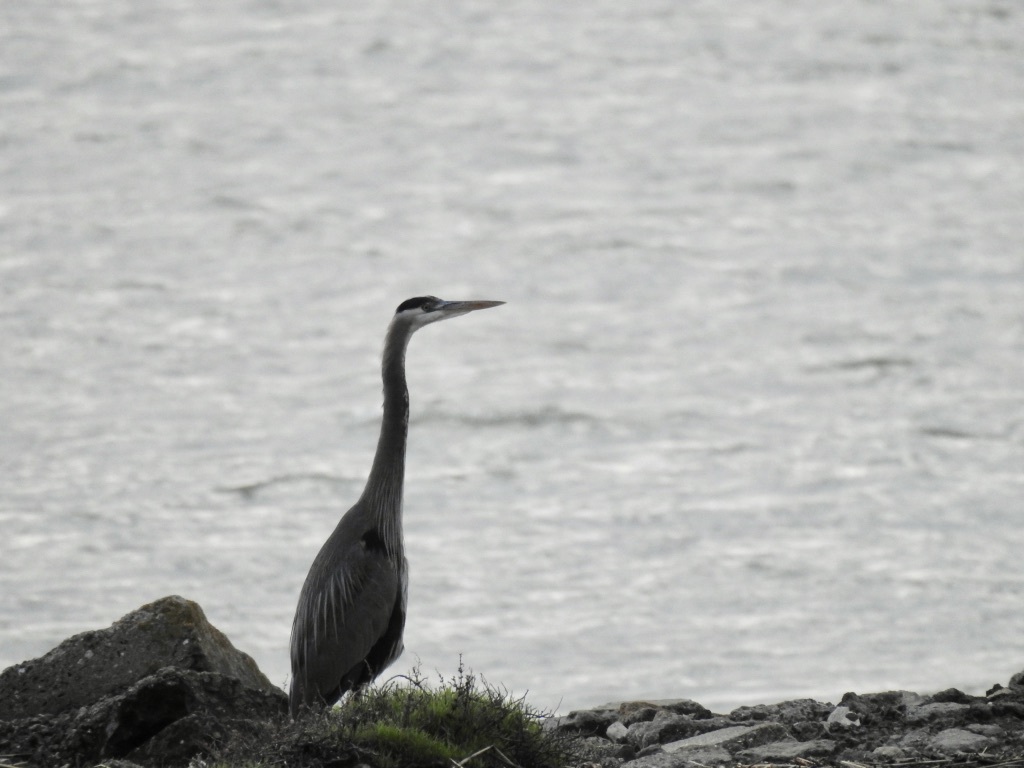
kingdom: Animalia
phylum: Chordata
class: Aves
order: Pelecaniformes
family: Ardeidae
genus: Ardea
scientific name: Ardea herodias
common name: Great blue heron
